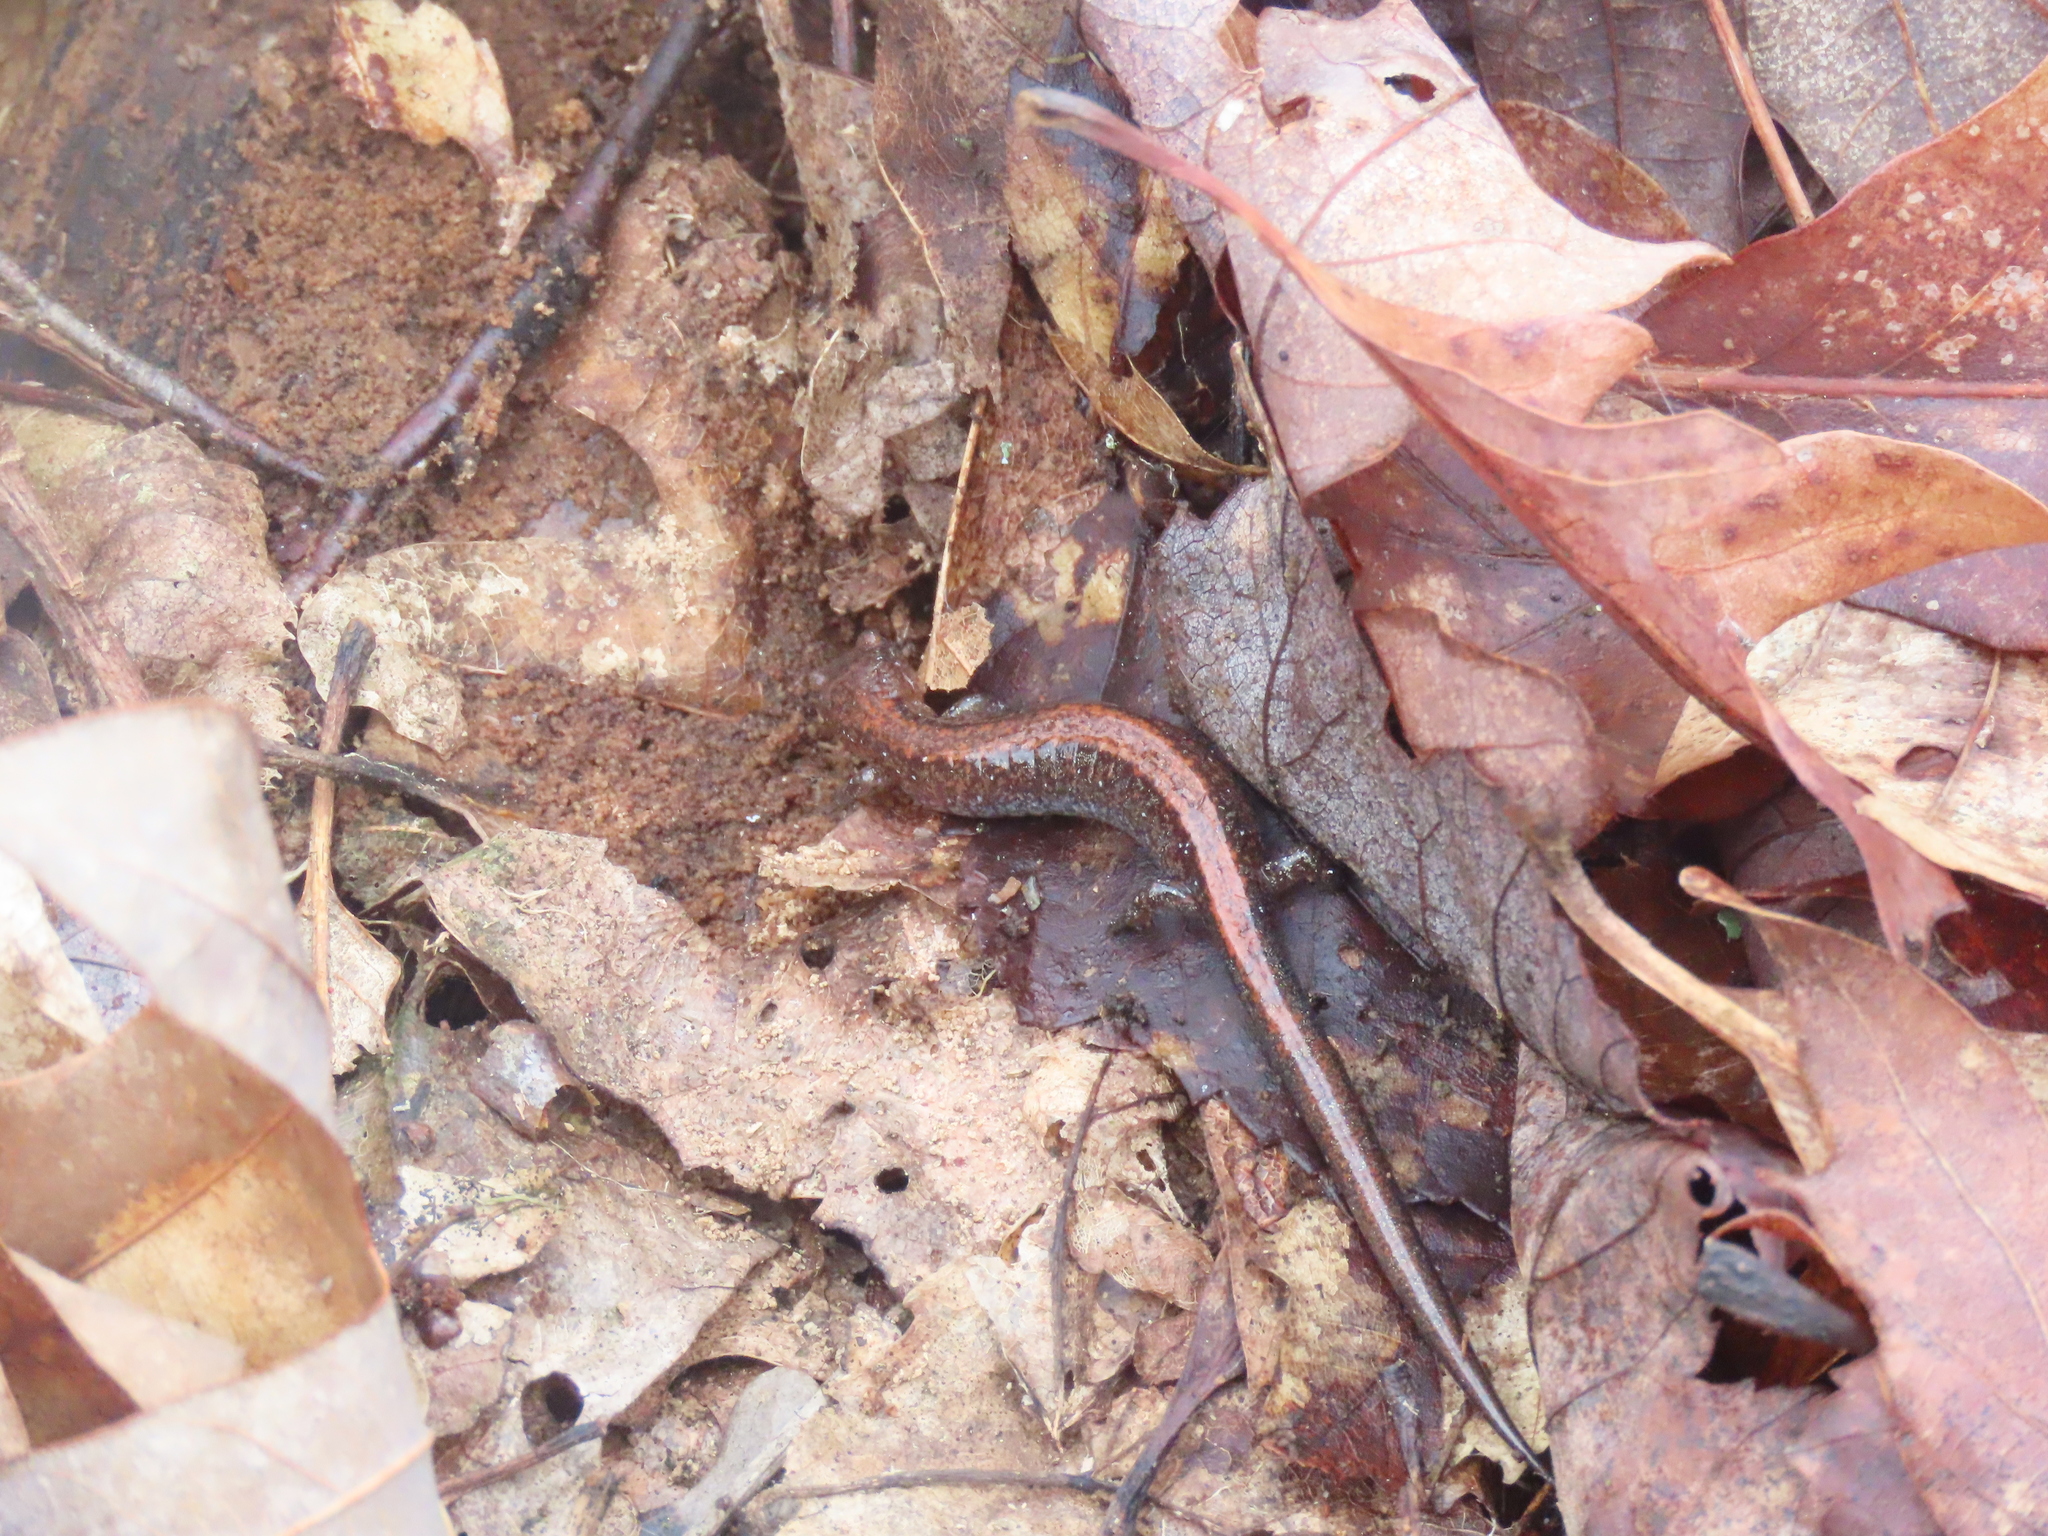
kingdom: Animalia
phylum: Chordata
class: Amphibia
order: Caudata
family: Plethodontidae
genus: Plethodon
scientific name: Plethodon cinereus
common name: Redback salamander
